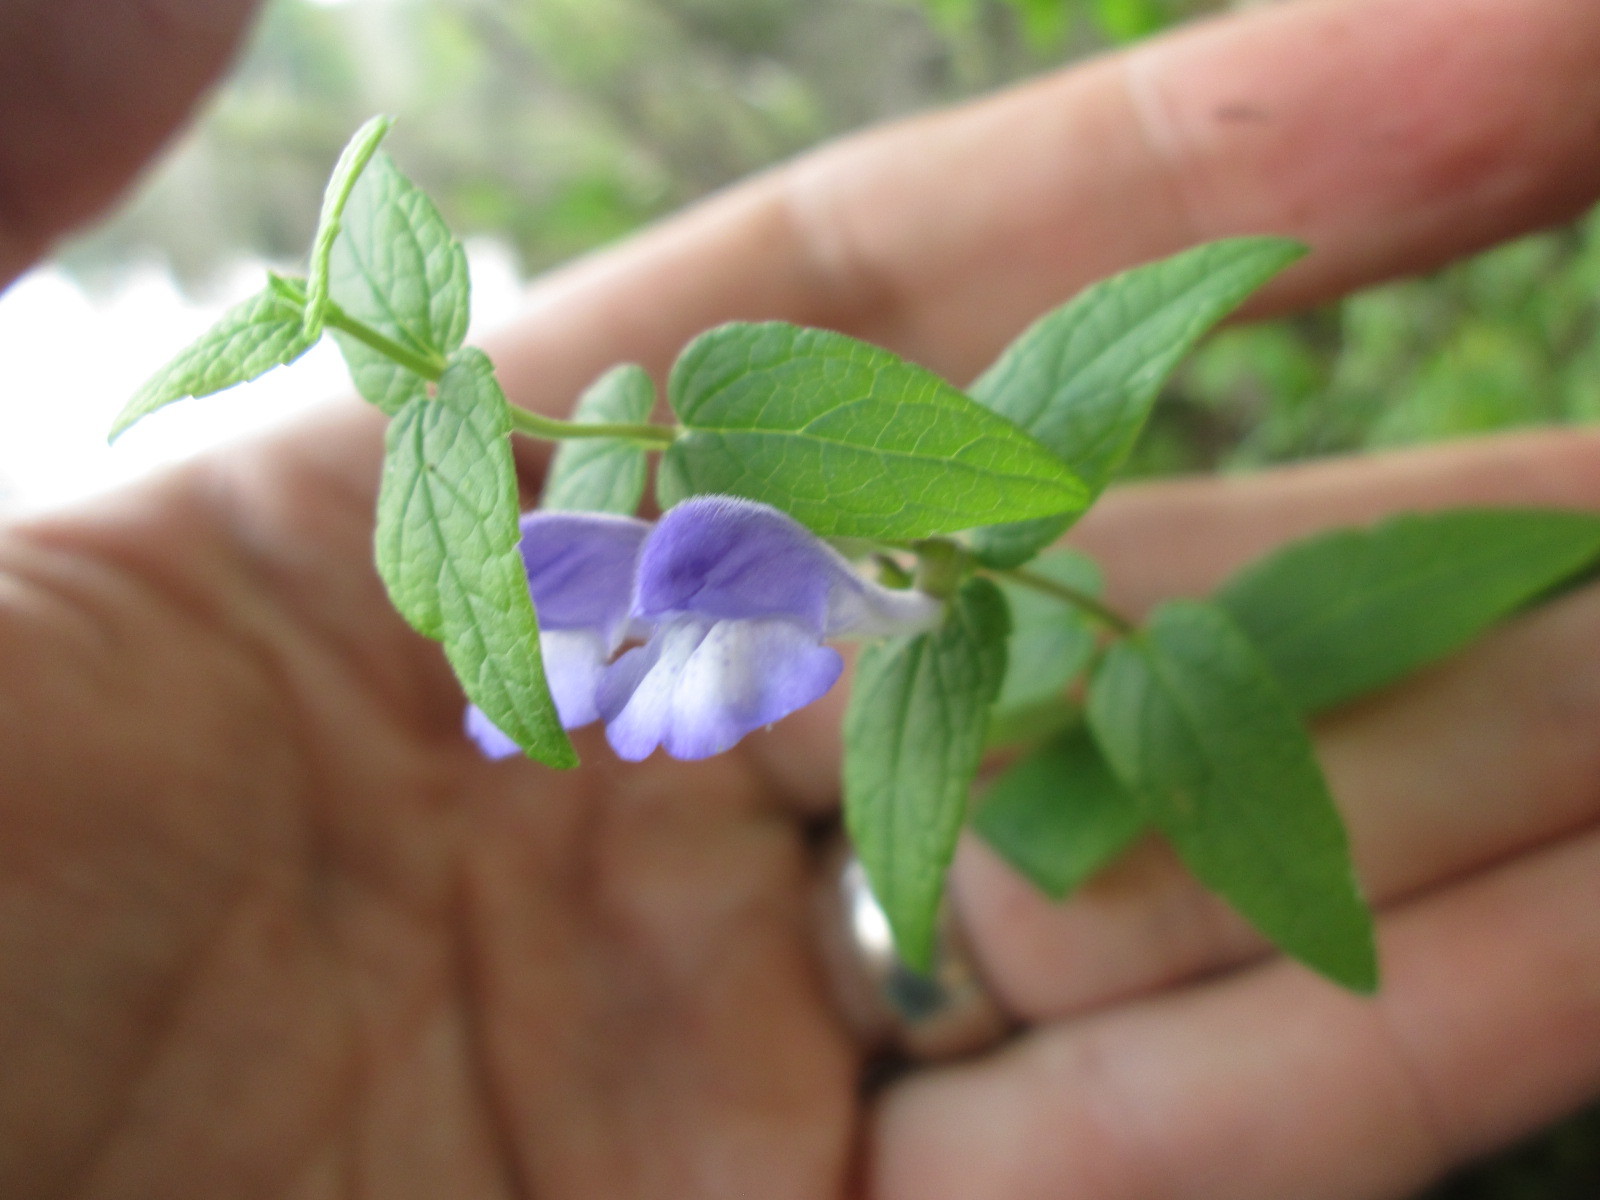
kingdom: Plantae
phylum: Tracheophyta
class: Magnoliopsida
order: Lamiales
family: Lamiaceae
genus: Scutellaria
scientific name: Scutellaria galericulata
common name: Skullcap
